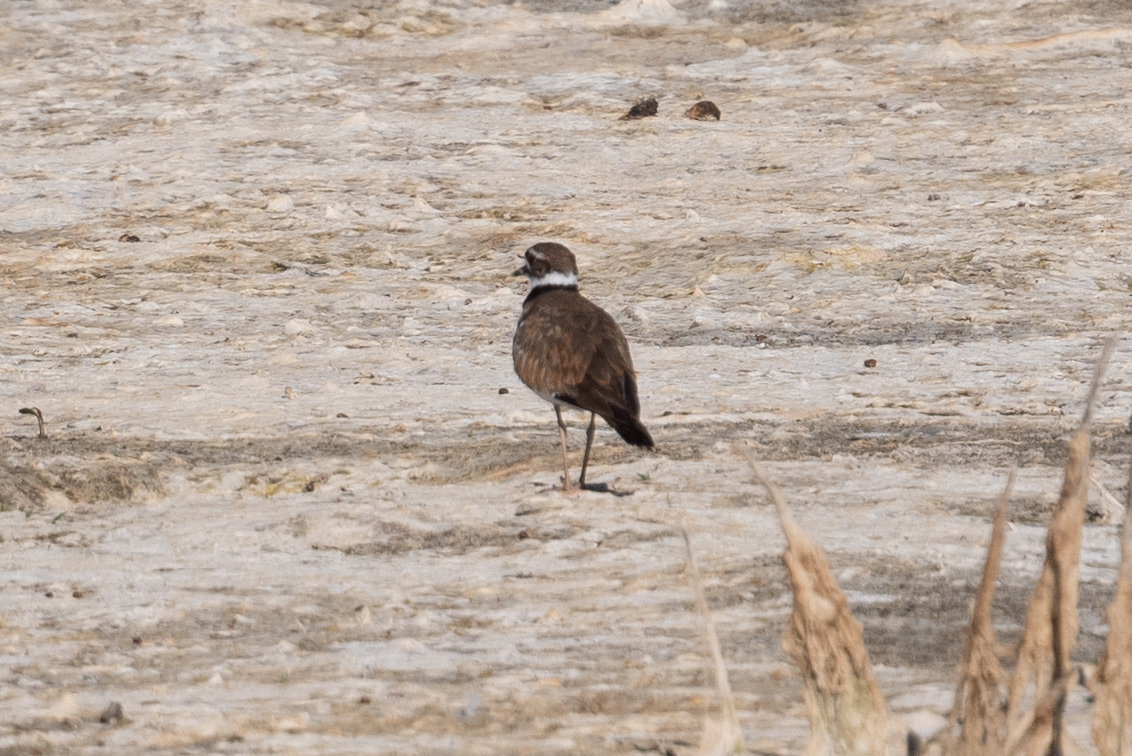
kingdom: Animalia
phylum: Chordata
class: Aves
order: Charadriiformes
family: Charadriidae
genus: Charadrius
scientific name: Charadrius vociferus
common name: Killdeer
